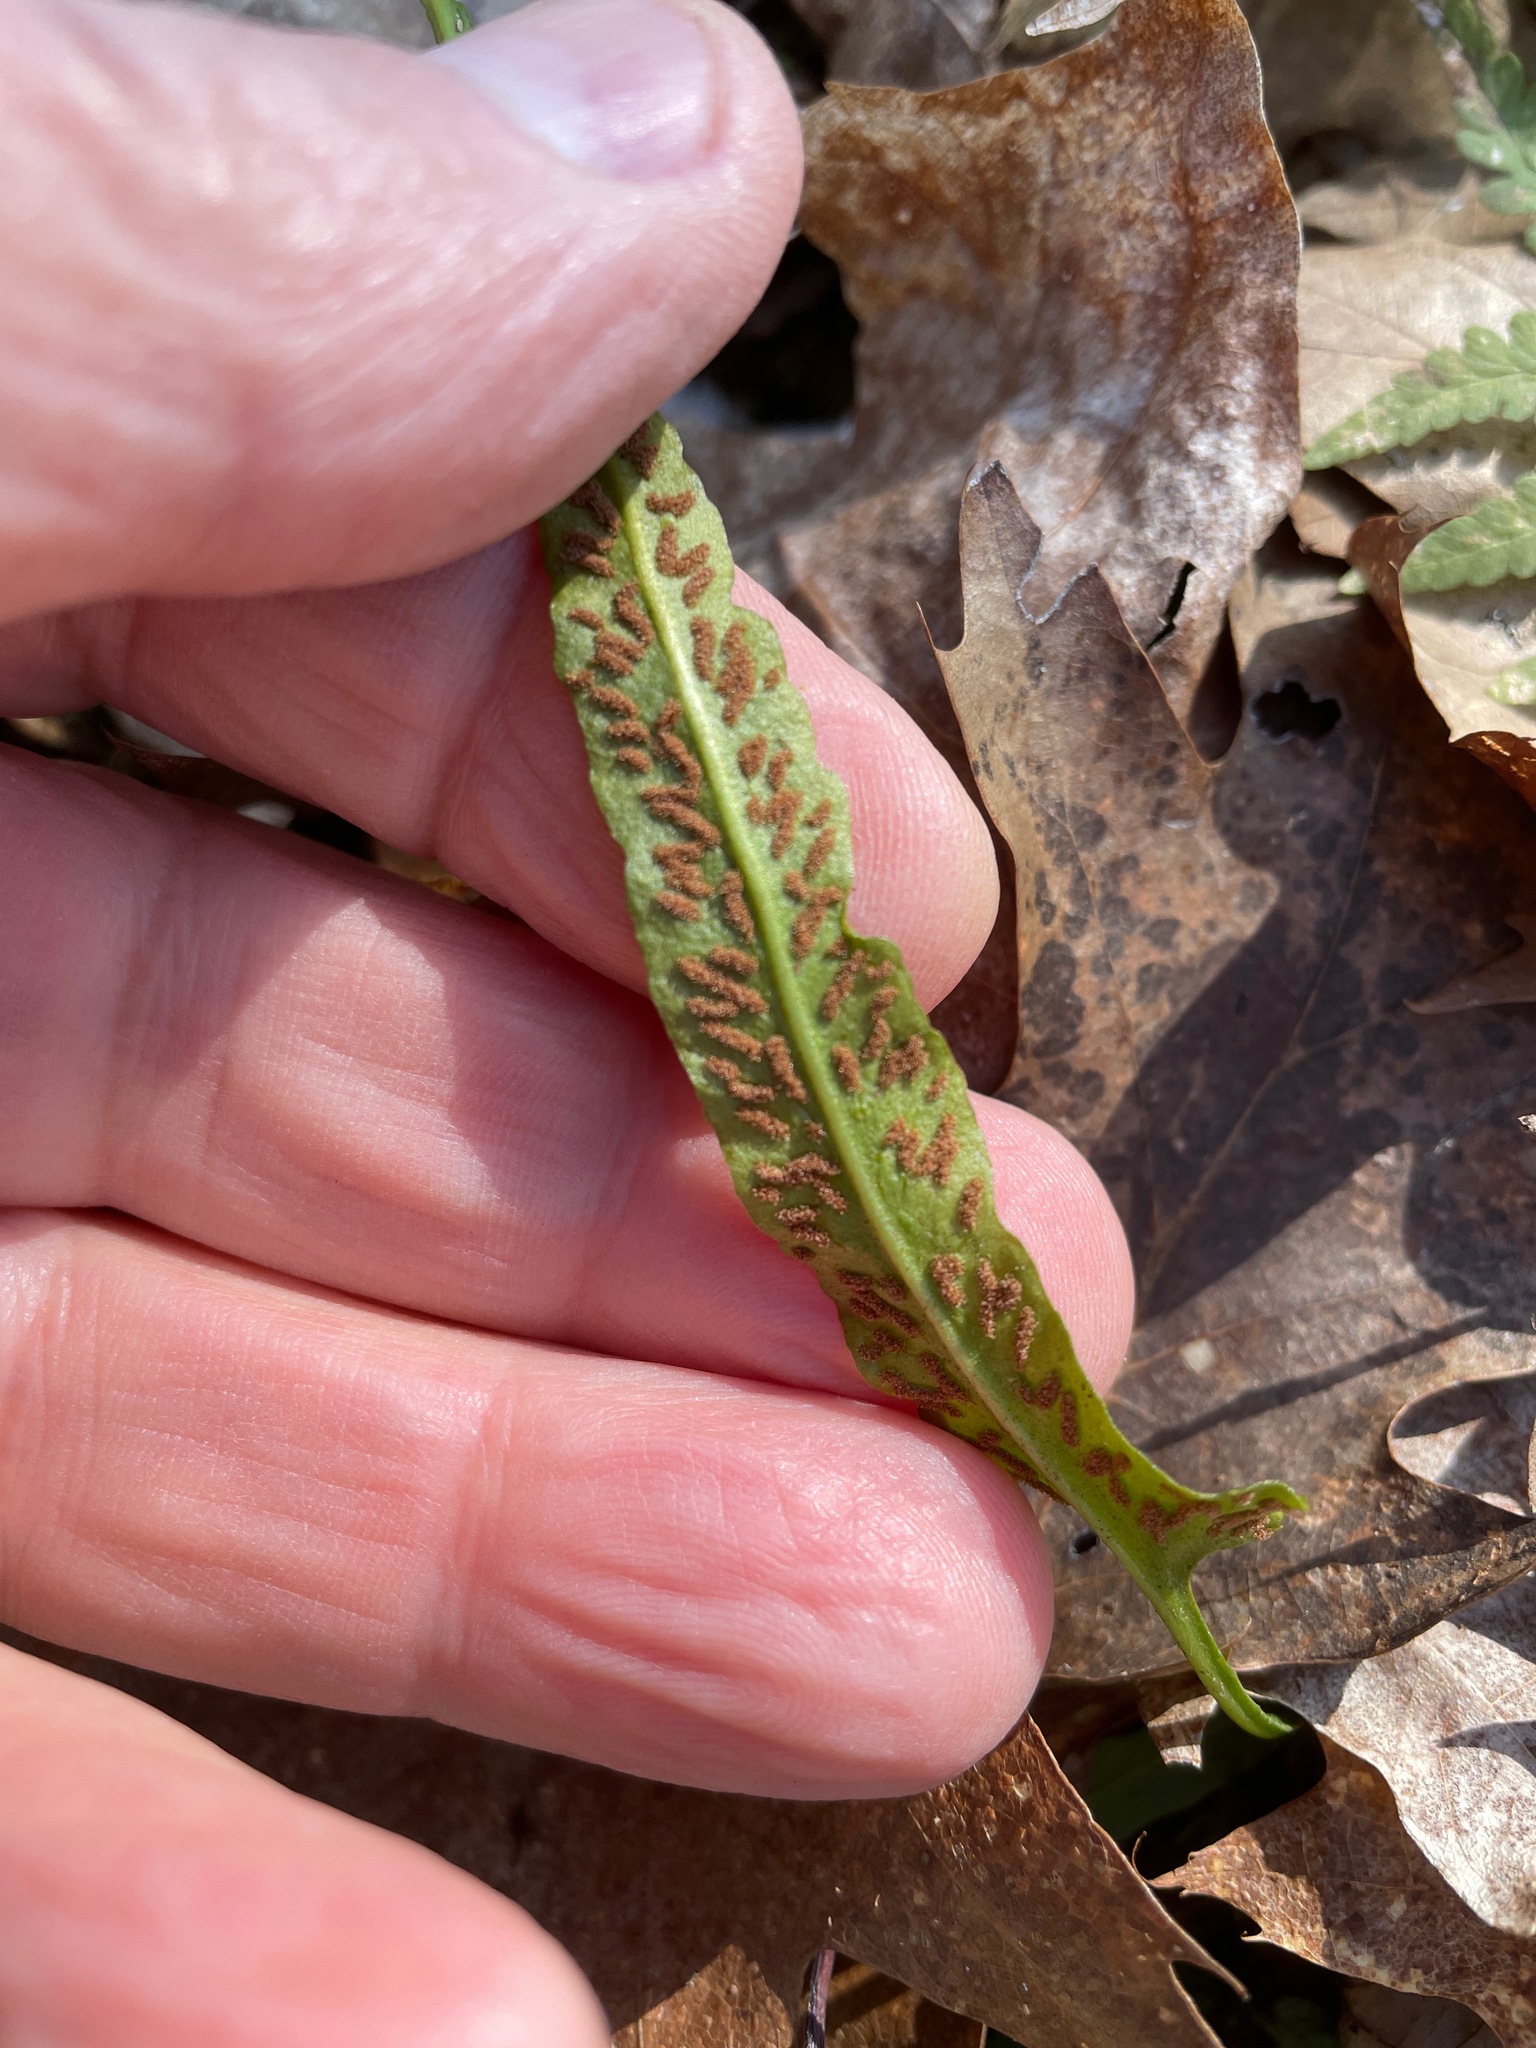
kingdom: Plantae
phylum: Tracheophyta
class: Polypodiopsida
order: Polypodiales
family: Aspleniaceae
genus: Asplenium
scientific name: Asplenium rhizophyllum
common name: Walking fern
